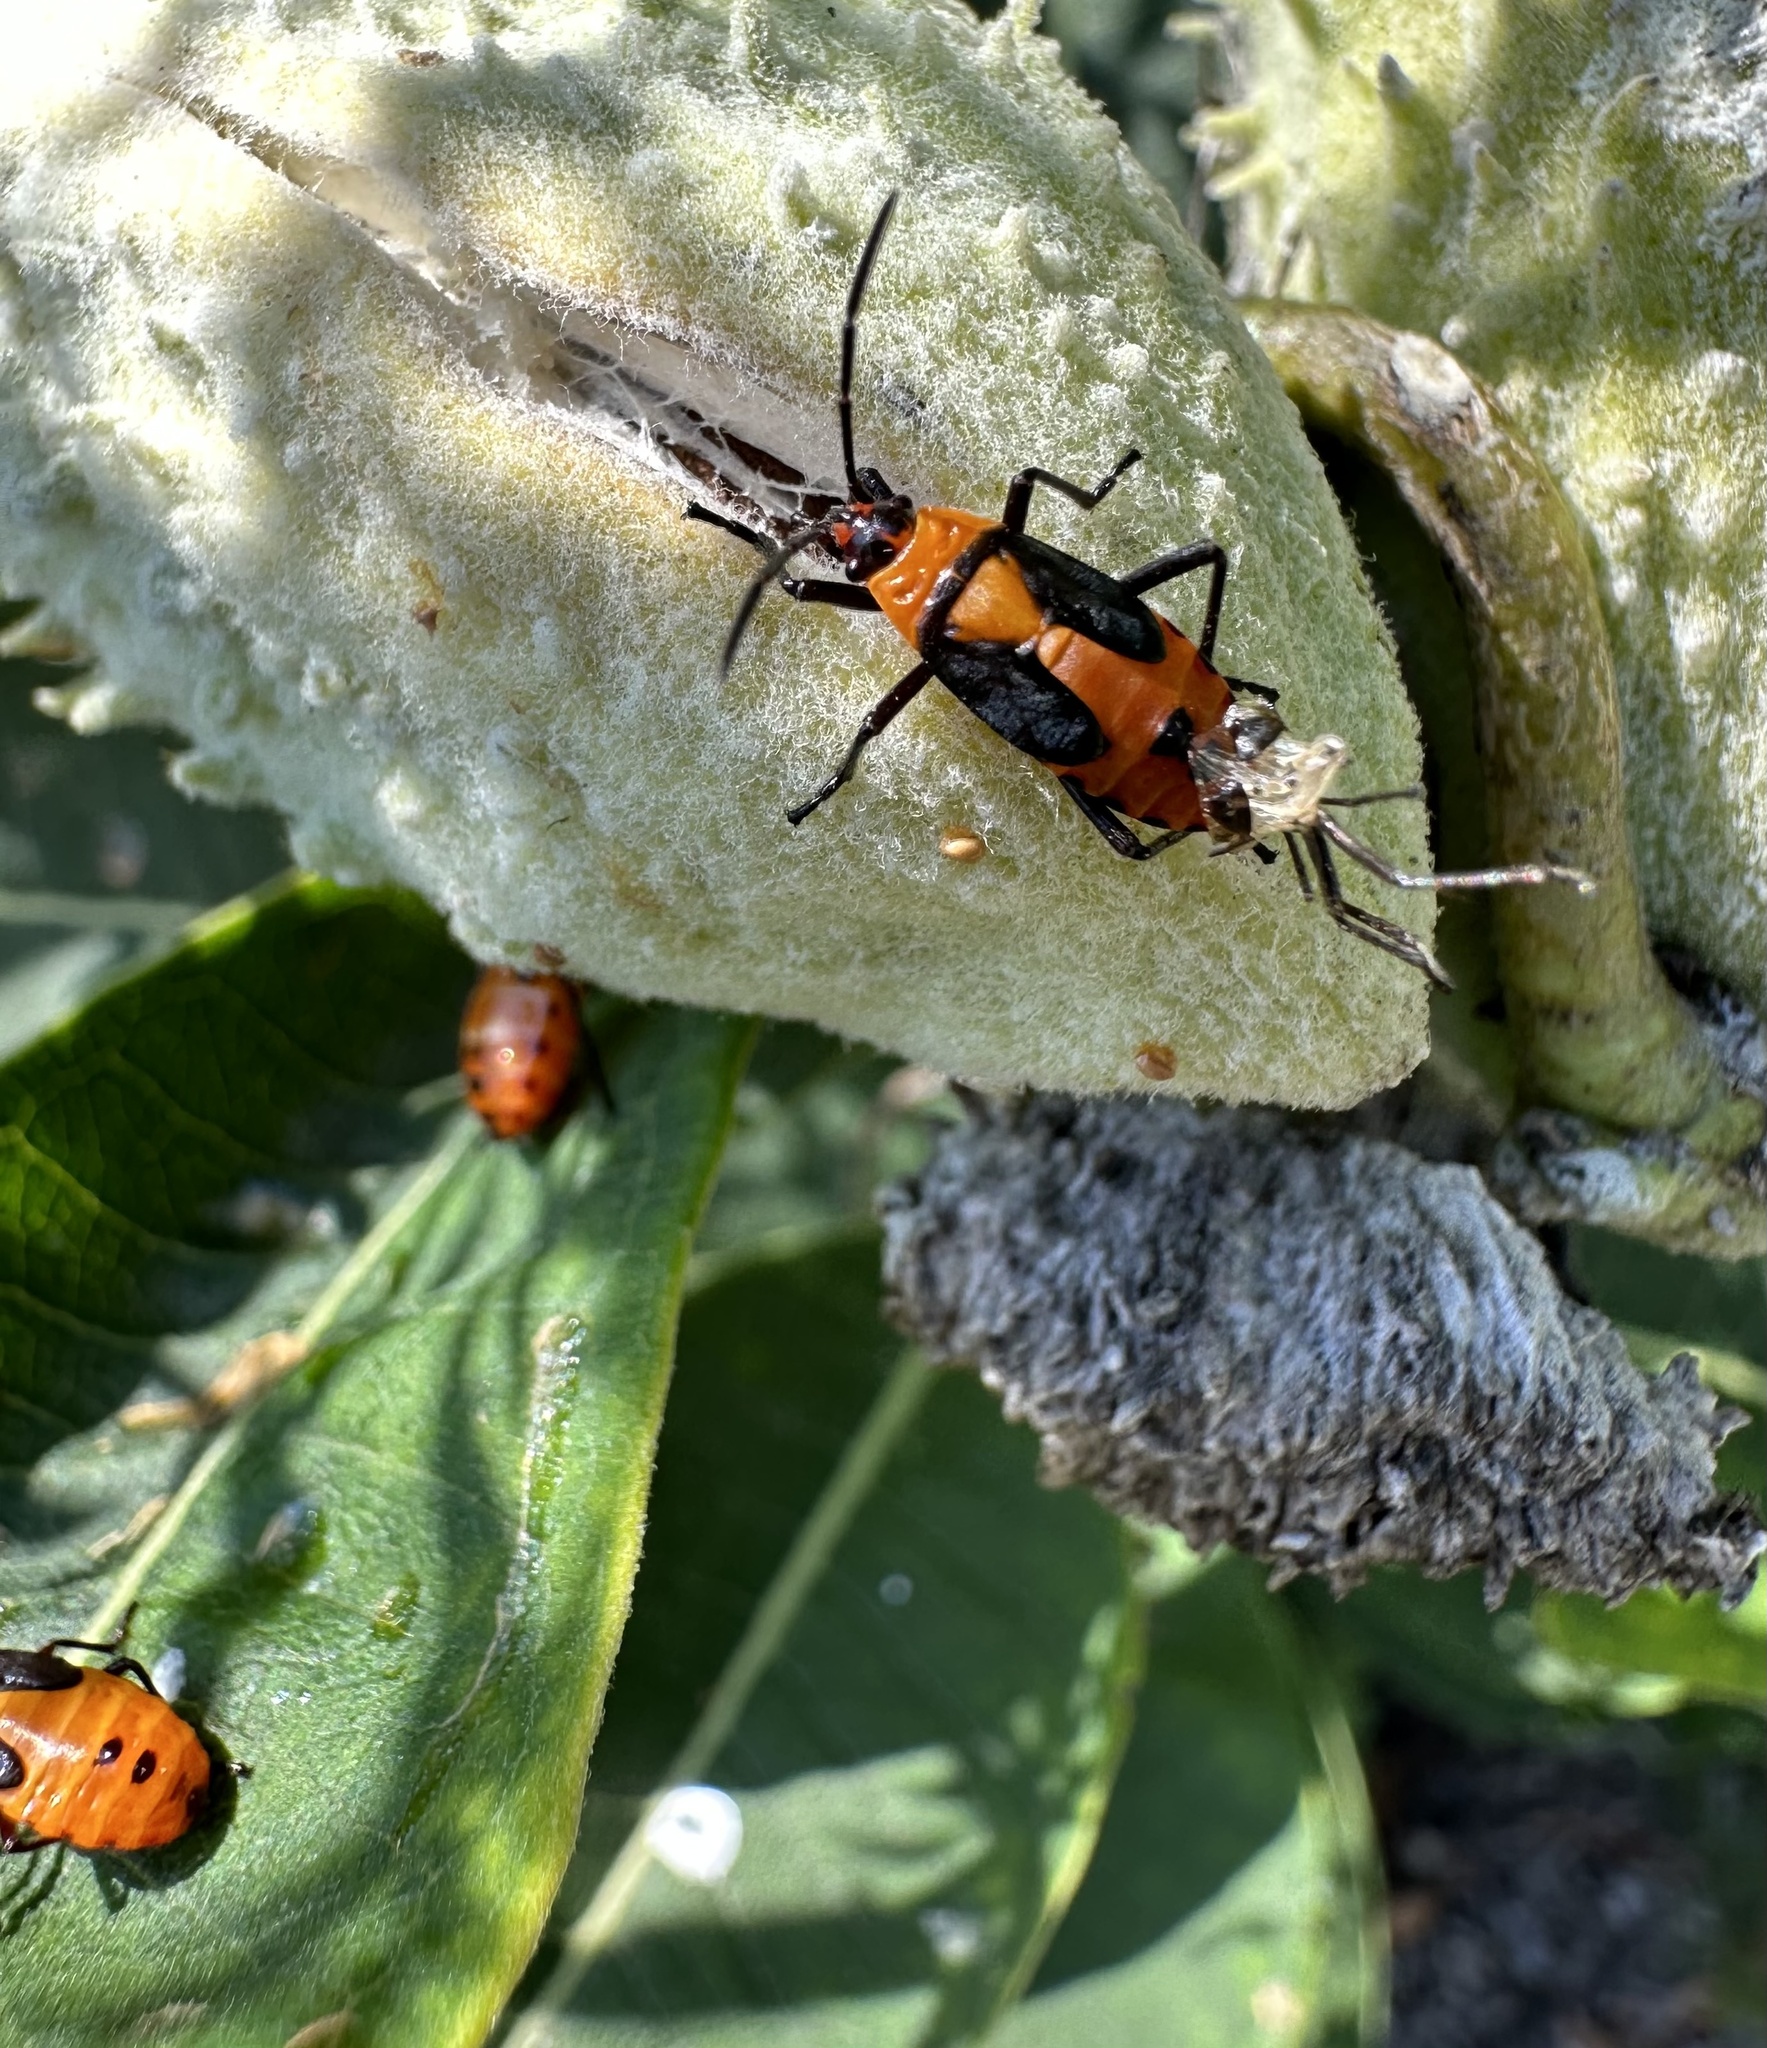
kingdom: Animalia
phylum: Arthropoda
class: Insecta
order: Hemiptera
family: Lygaeidae
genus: Oncopeltus
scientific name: Oncopeltus fasciatus
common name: Large milkweed bug
